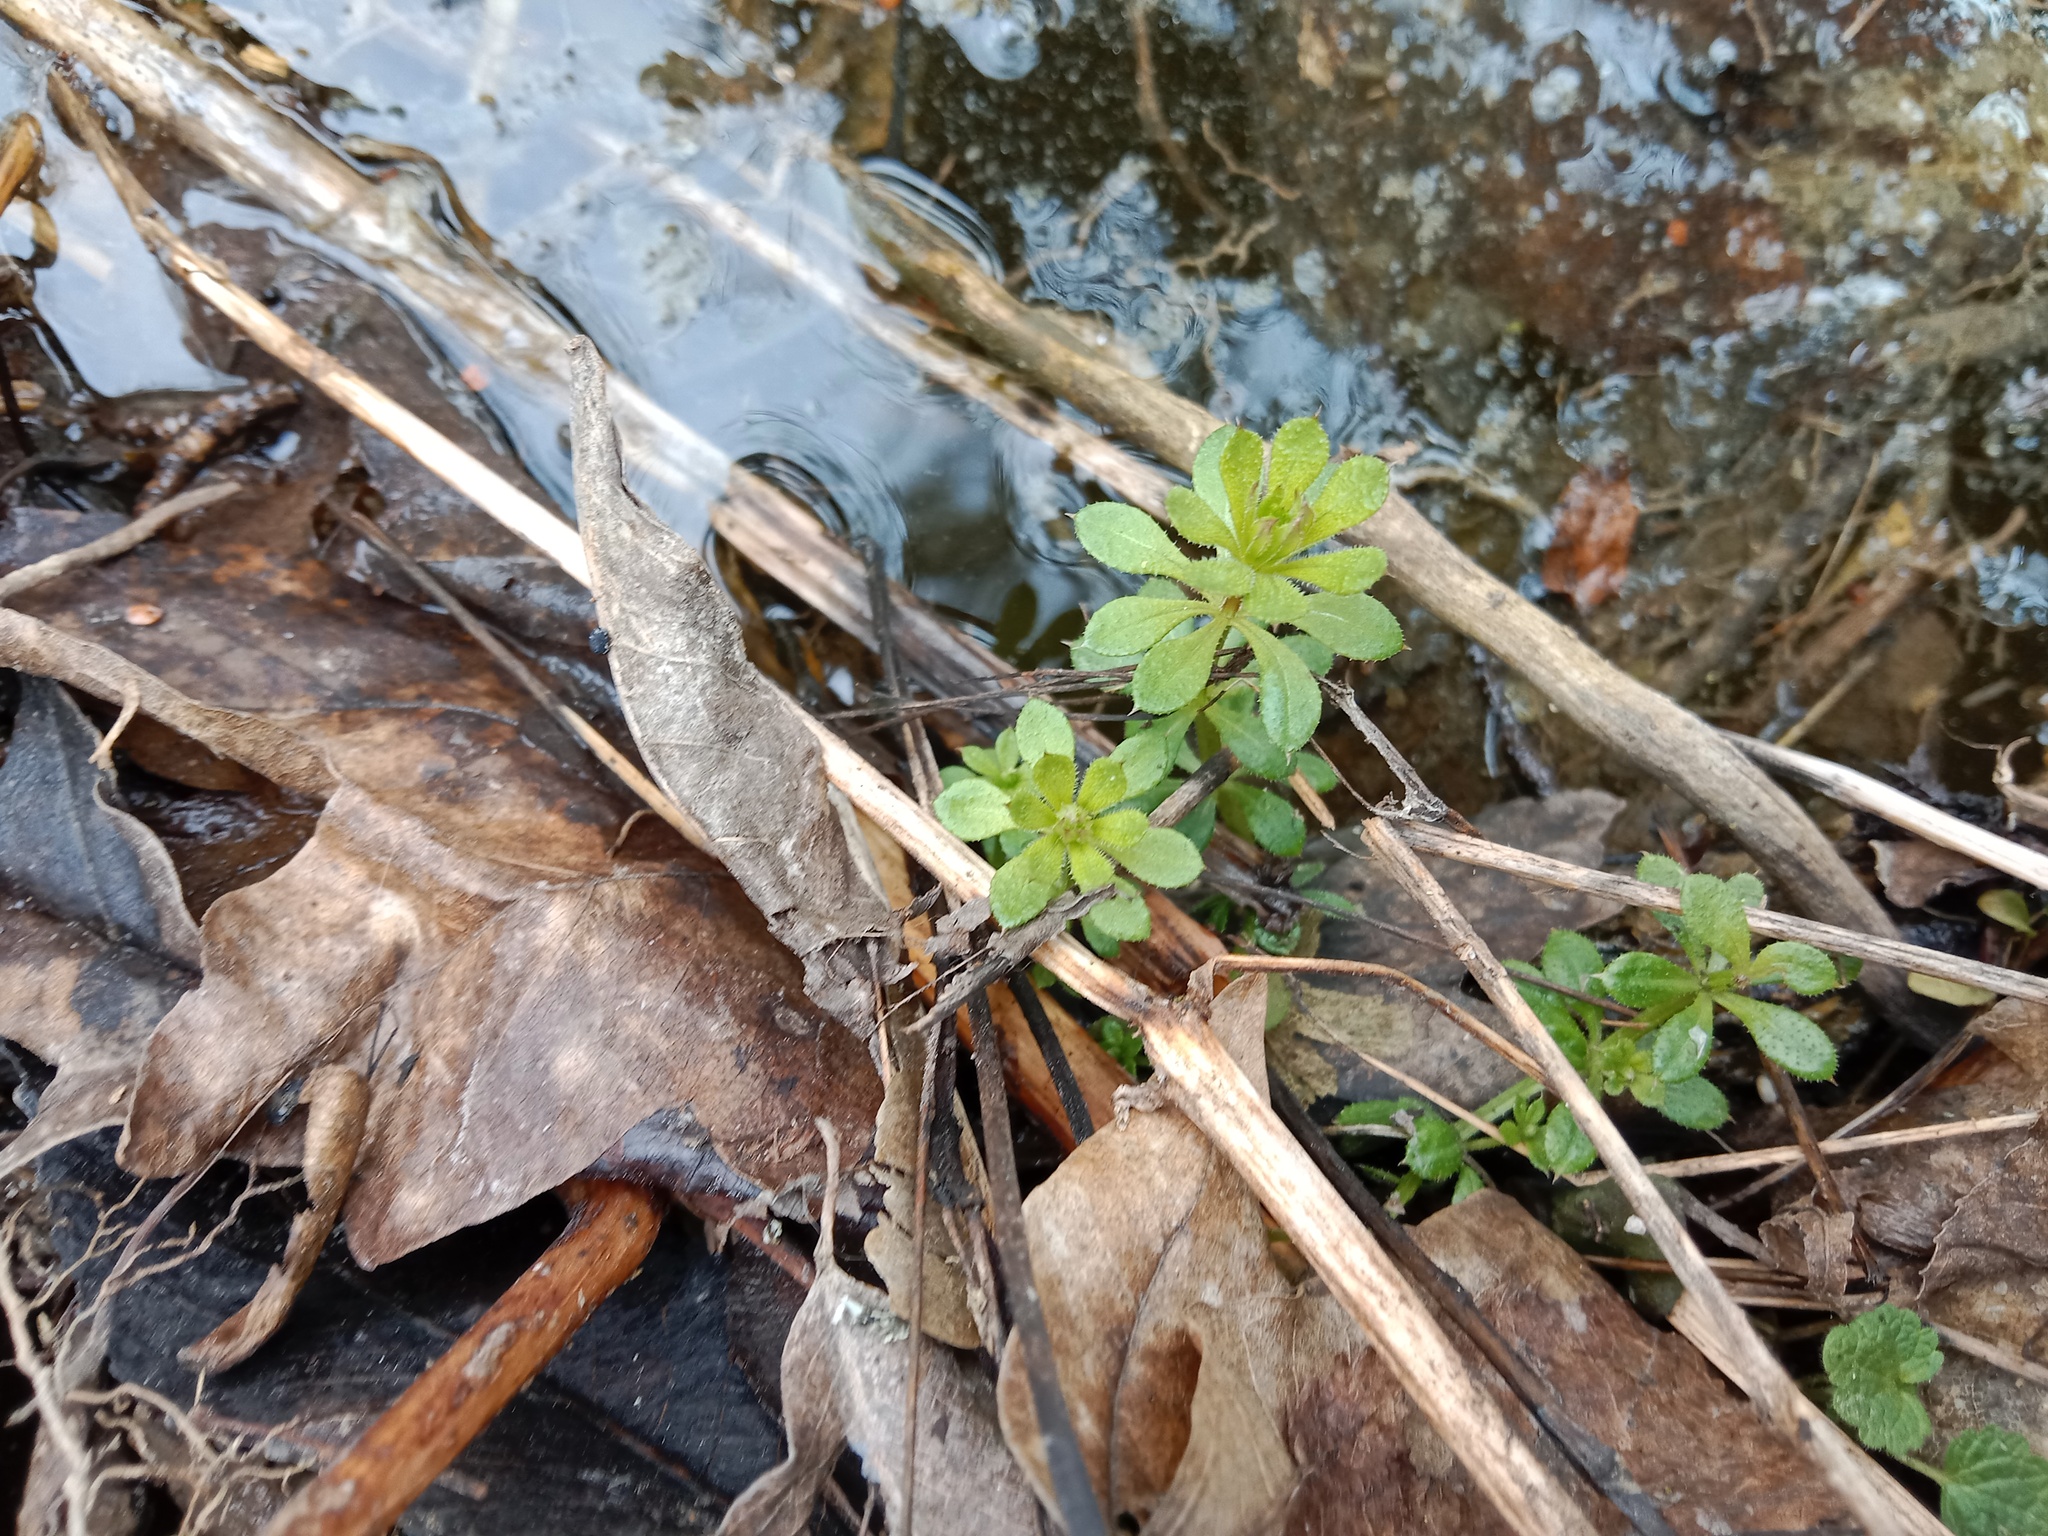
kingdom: Plantae
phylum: Tracheophyta
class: Magnoliopsida
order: Gentianales
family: Rubiaceae
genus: Galium
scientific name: Galium aparine
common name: Cleavers
